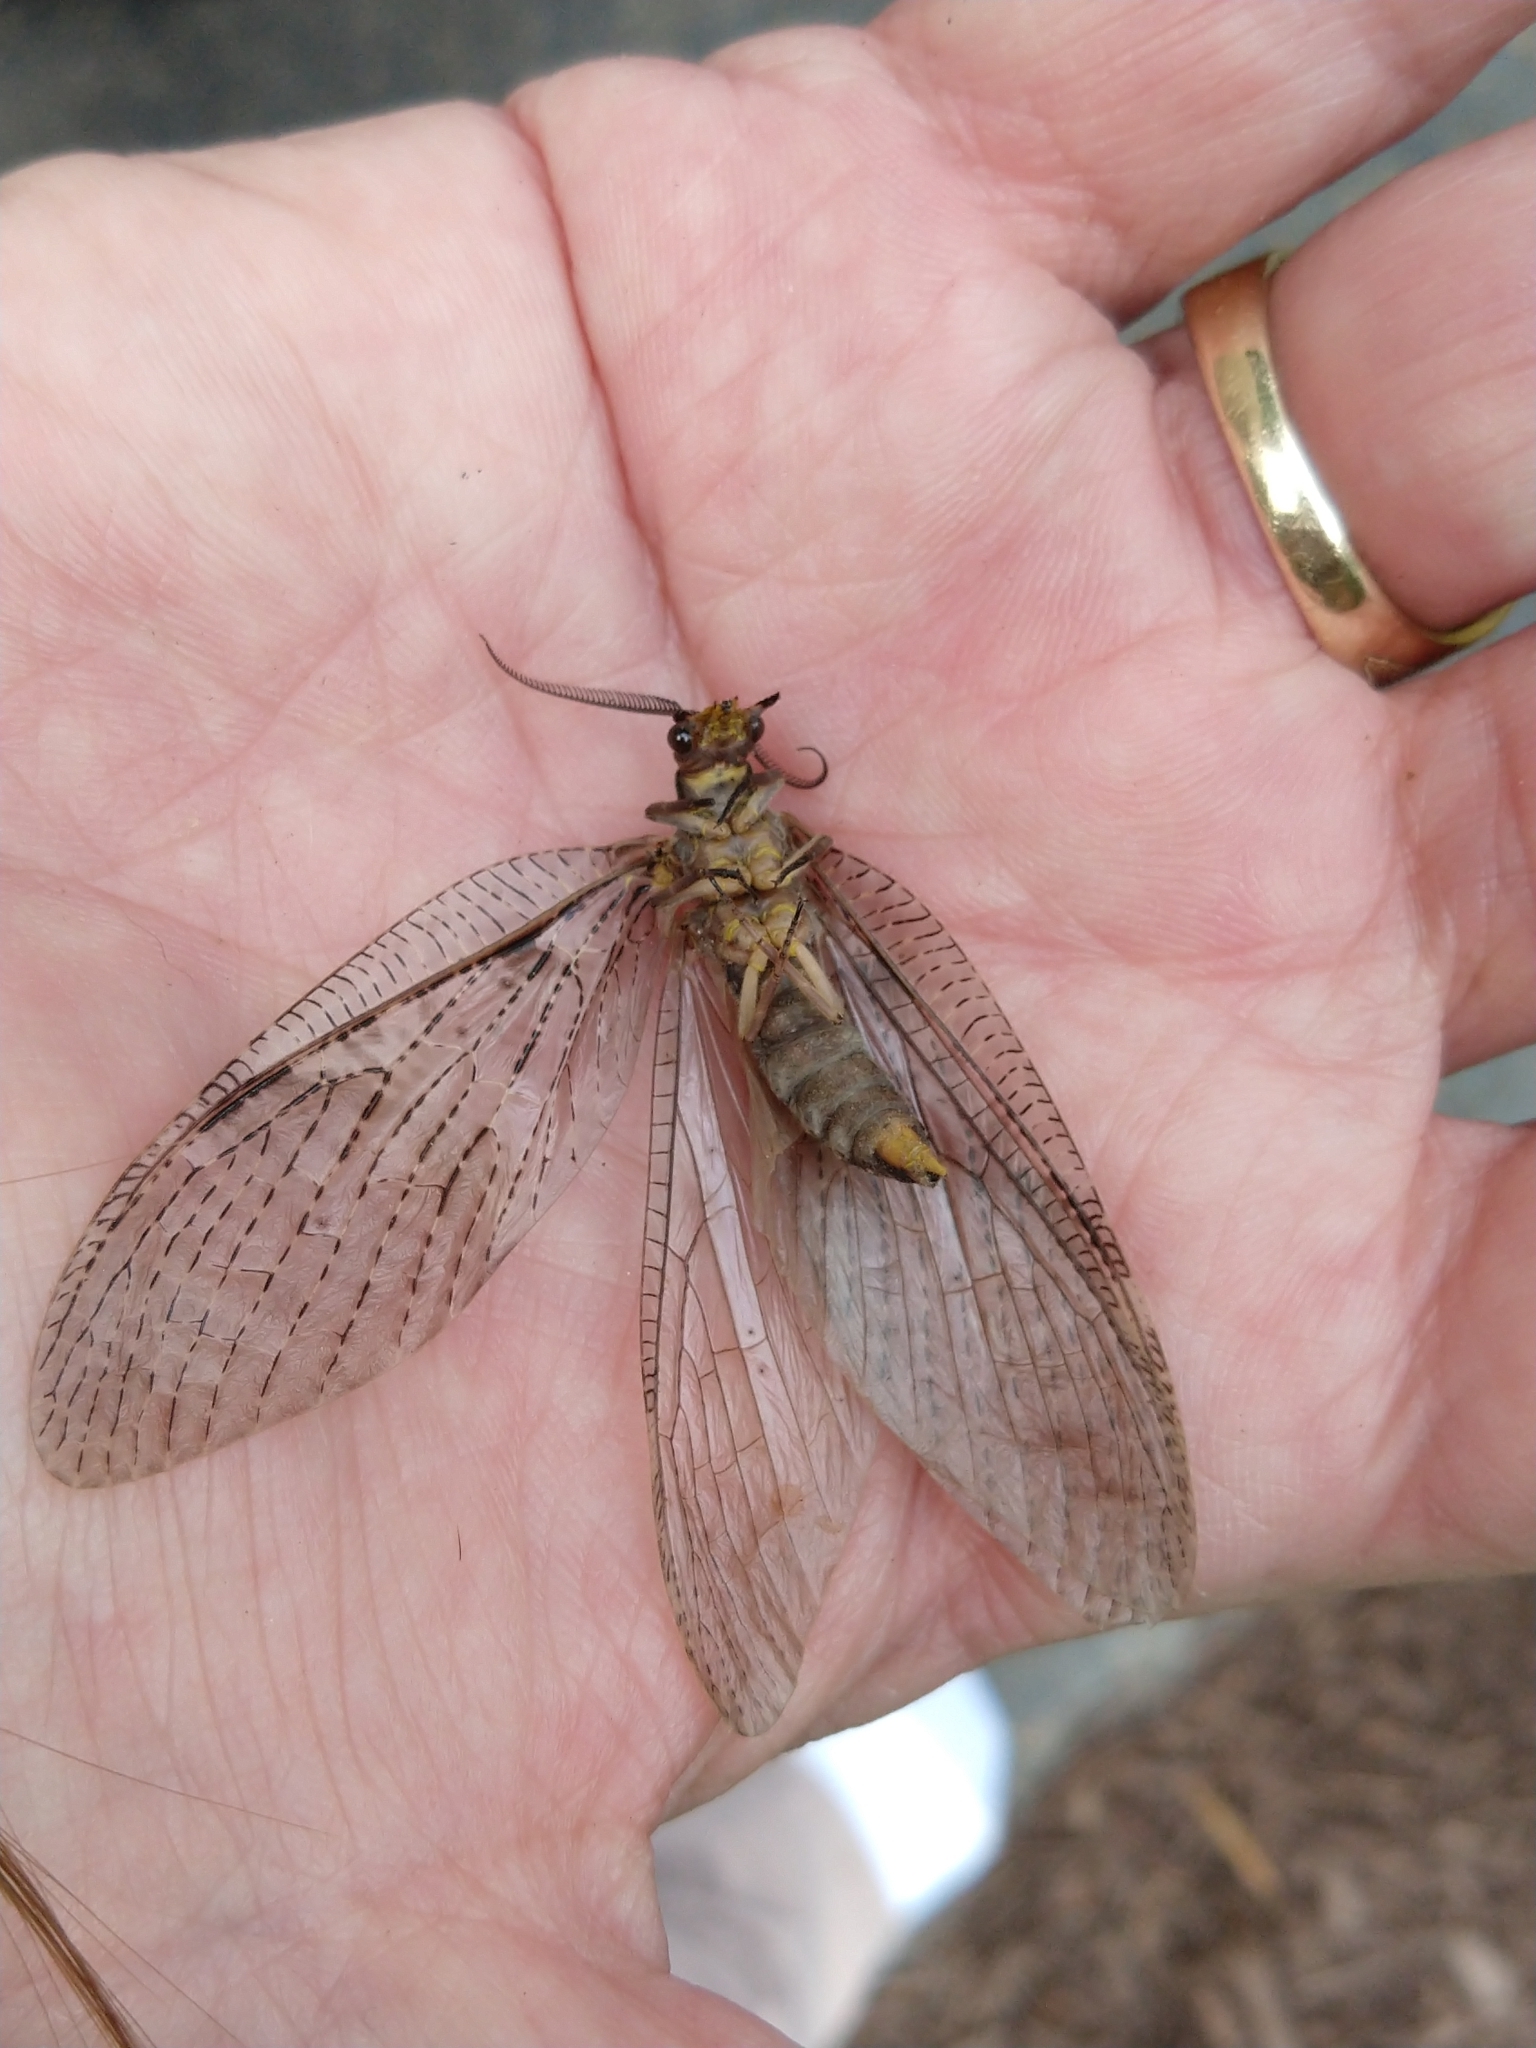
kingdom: Animalia
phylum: Arthropoda
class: Insecta
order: Megaloptera
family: Corydalidae
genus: Chauliodes
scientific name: Chauliodes pectinicornis
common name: Summer fishfly
